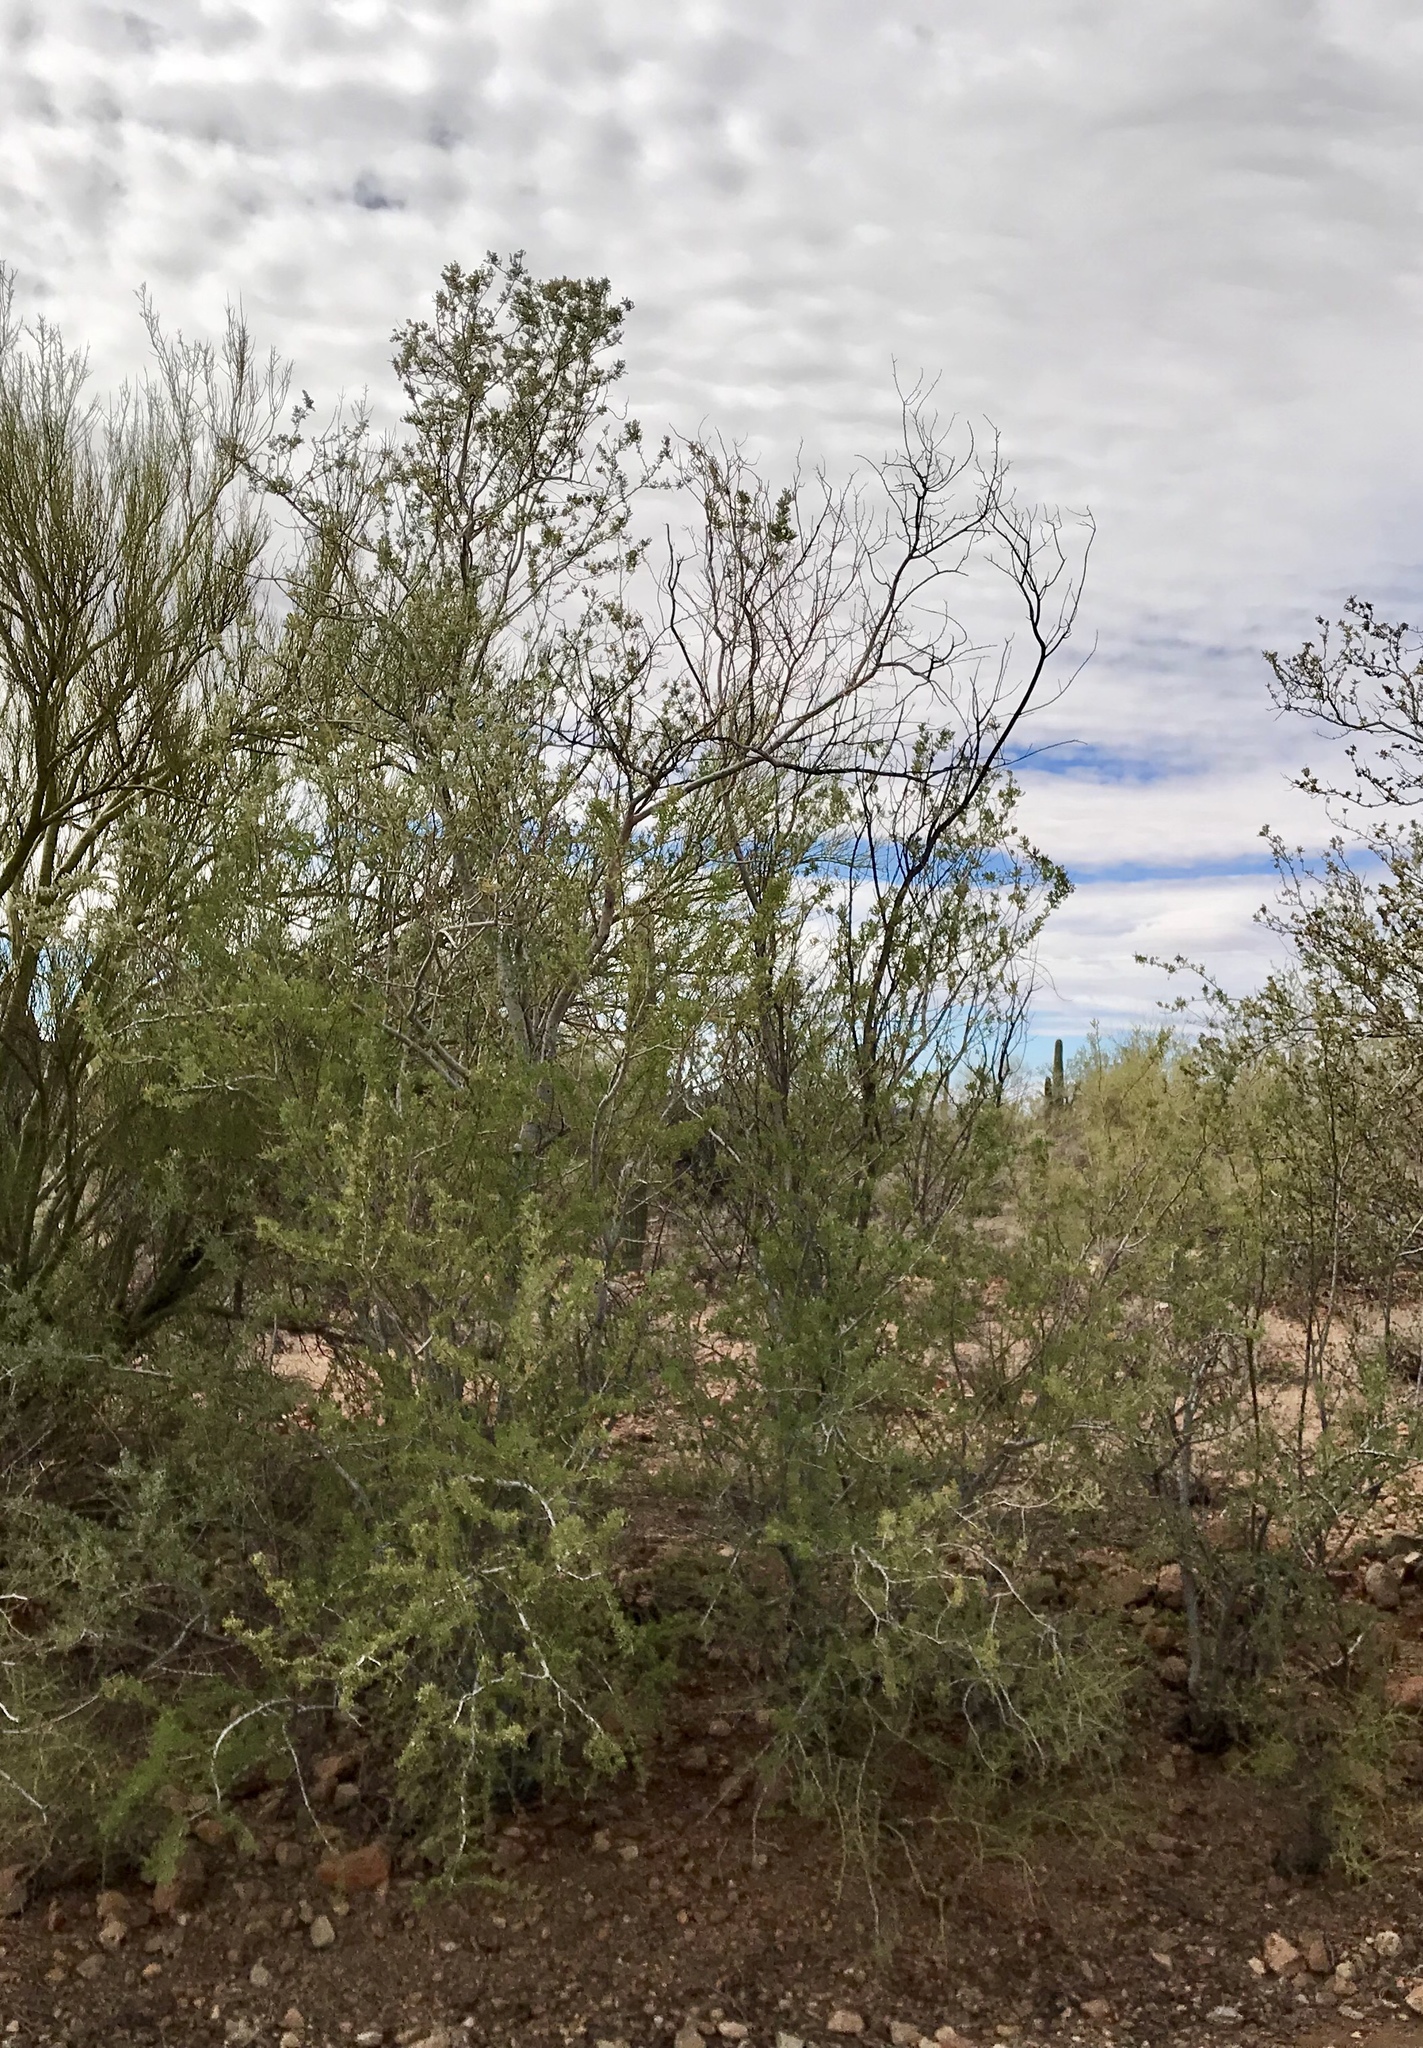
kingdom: Plantae
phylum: Tracheophyta
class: Magnoliopsida
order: Fabales
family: Fabaceae
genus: Olneya
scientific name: Olneya tesota
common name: Desert ironwood
